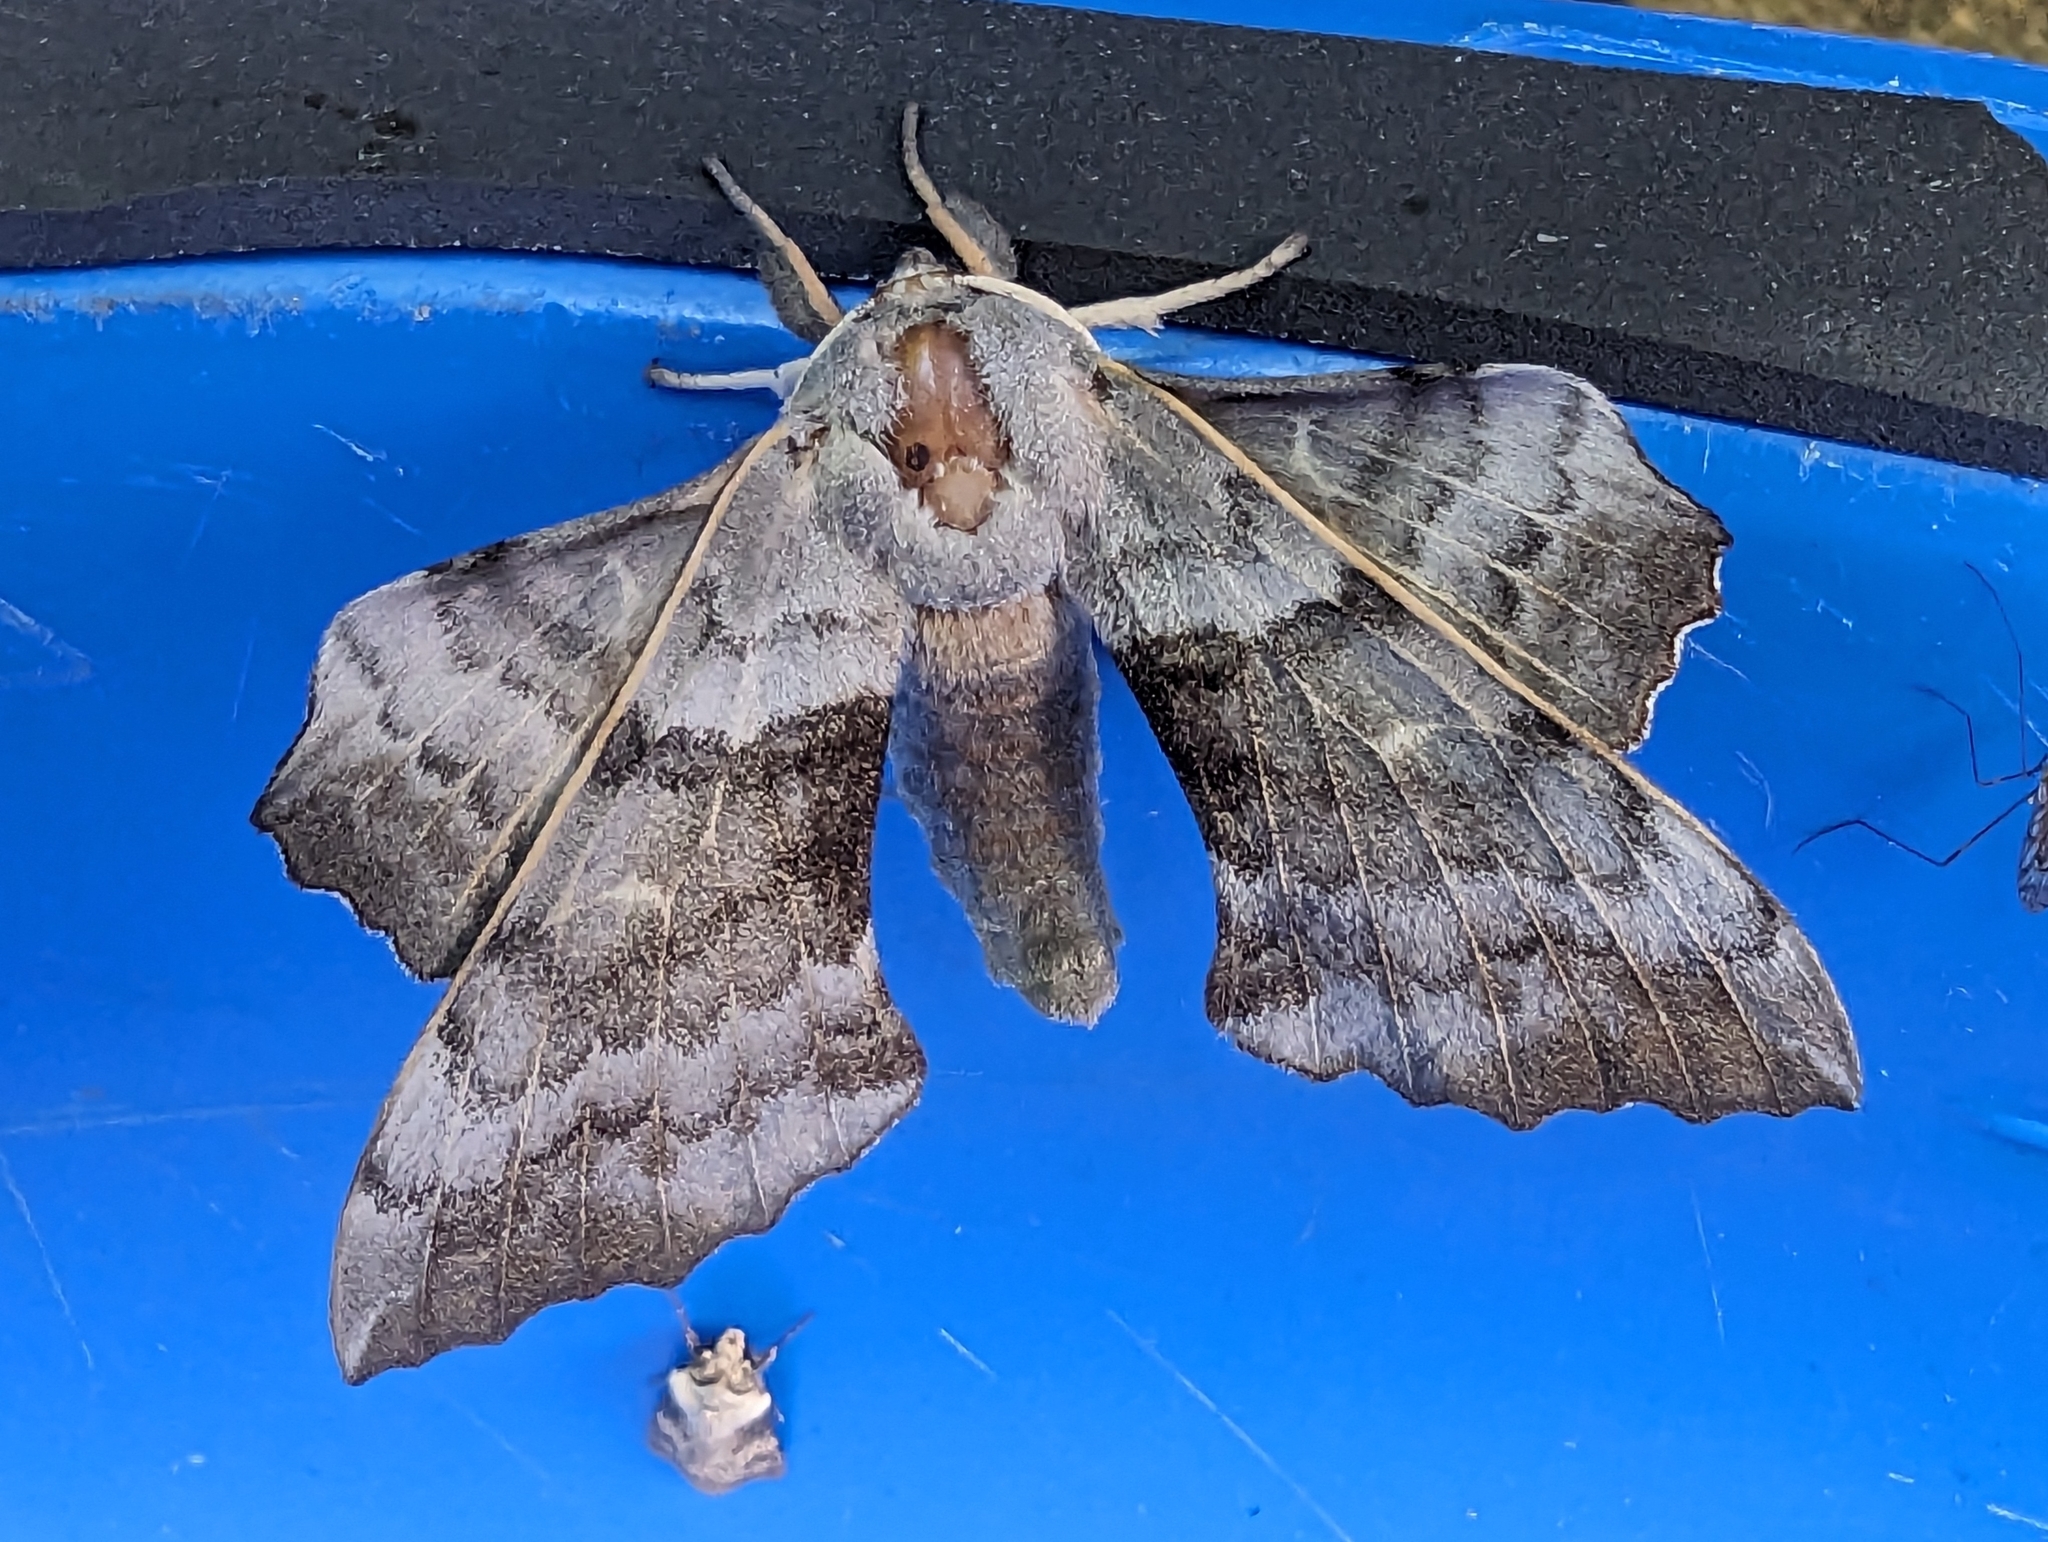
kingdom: Animalia
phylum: Arthropoda
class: Insecta
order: Lepidoptera
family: Sphingidae
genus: Laothoe
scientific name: Laothoe populi
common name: Poplar hawk-moth
